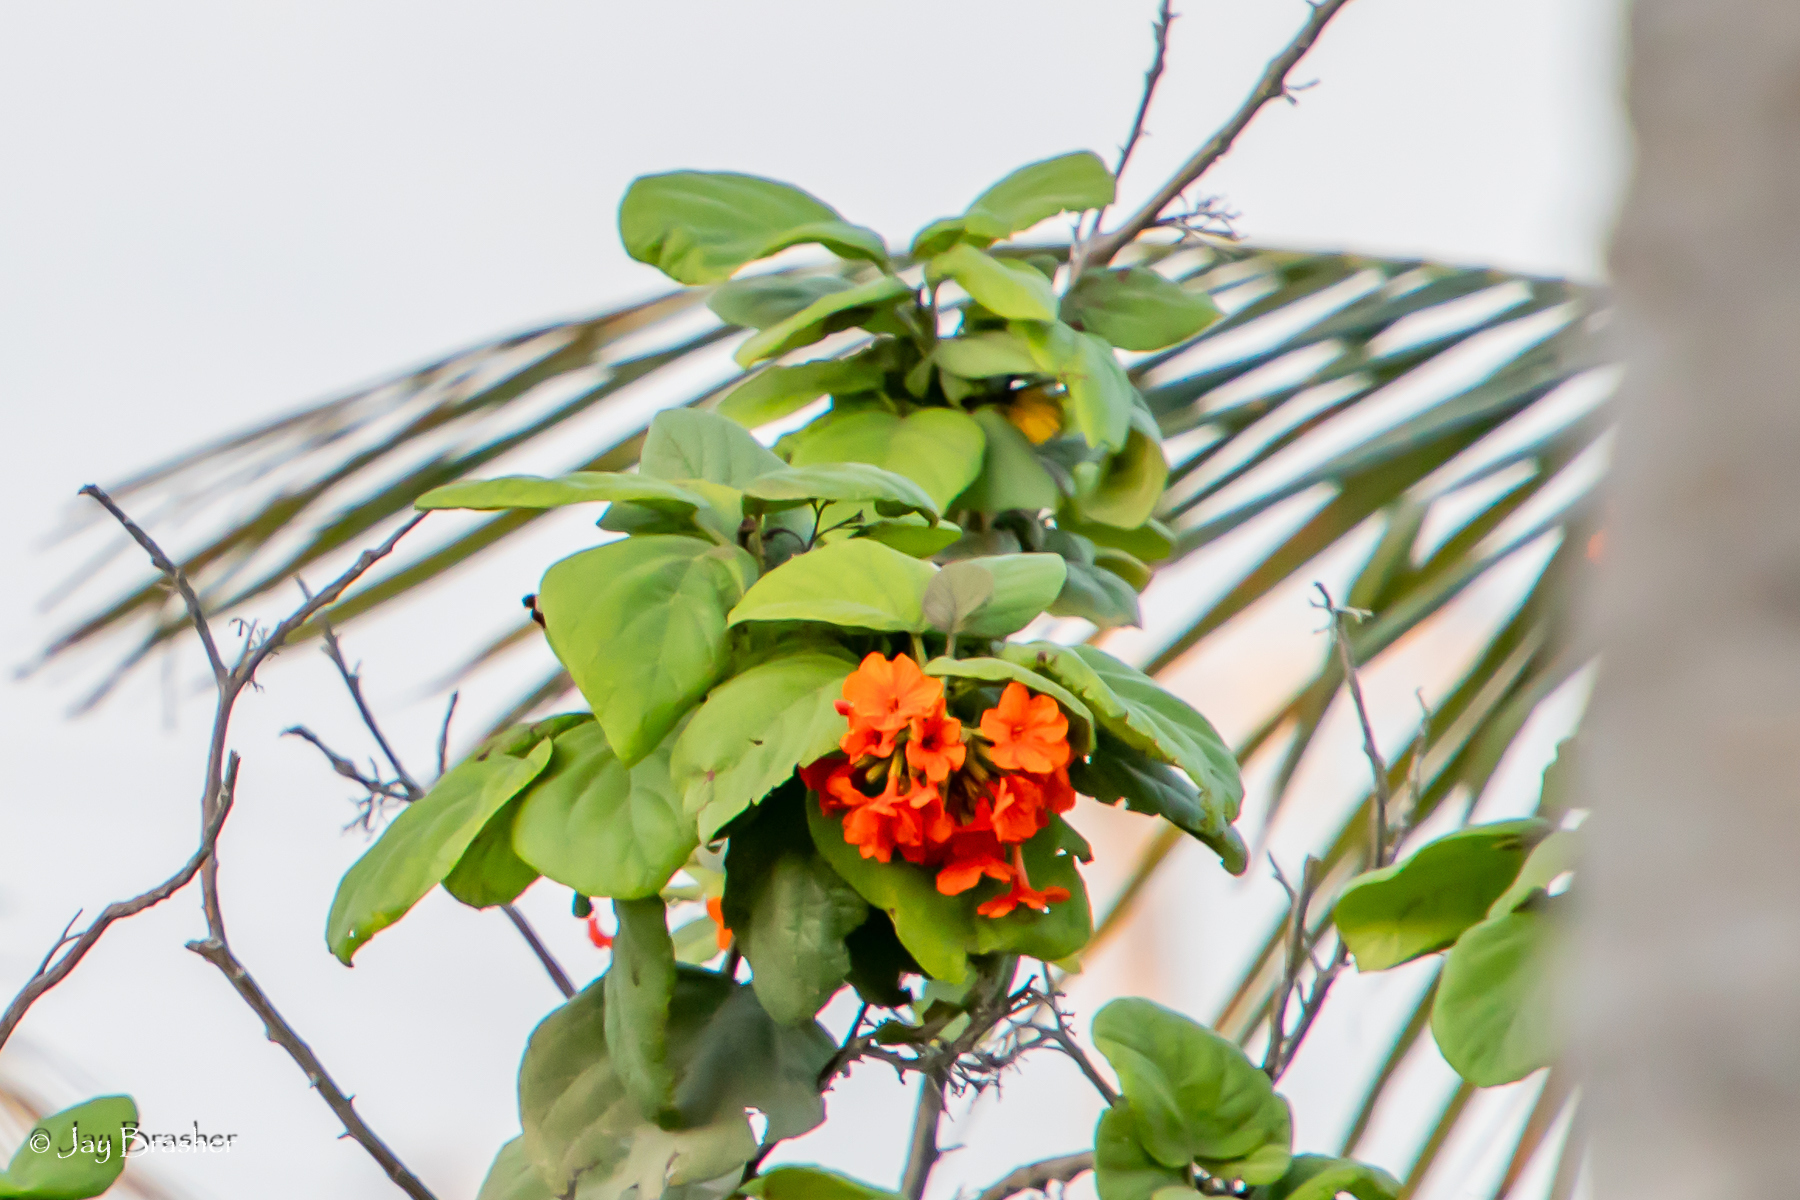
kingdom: Plantae
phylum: Tracheophyta
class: Magnoliopsida
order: Boraginales
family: Cordiaceae
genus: Cordia
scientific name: Cordia sebestena
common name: Largeleaf geigertree
